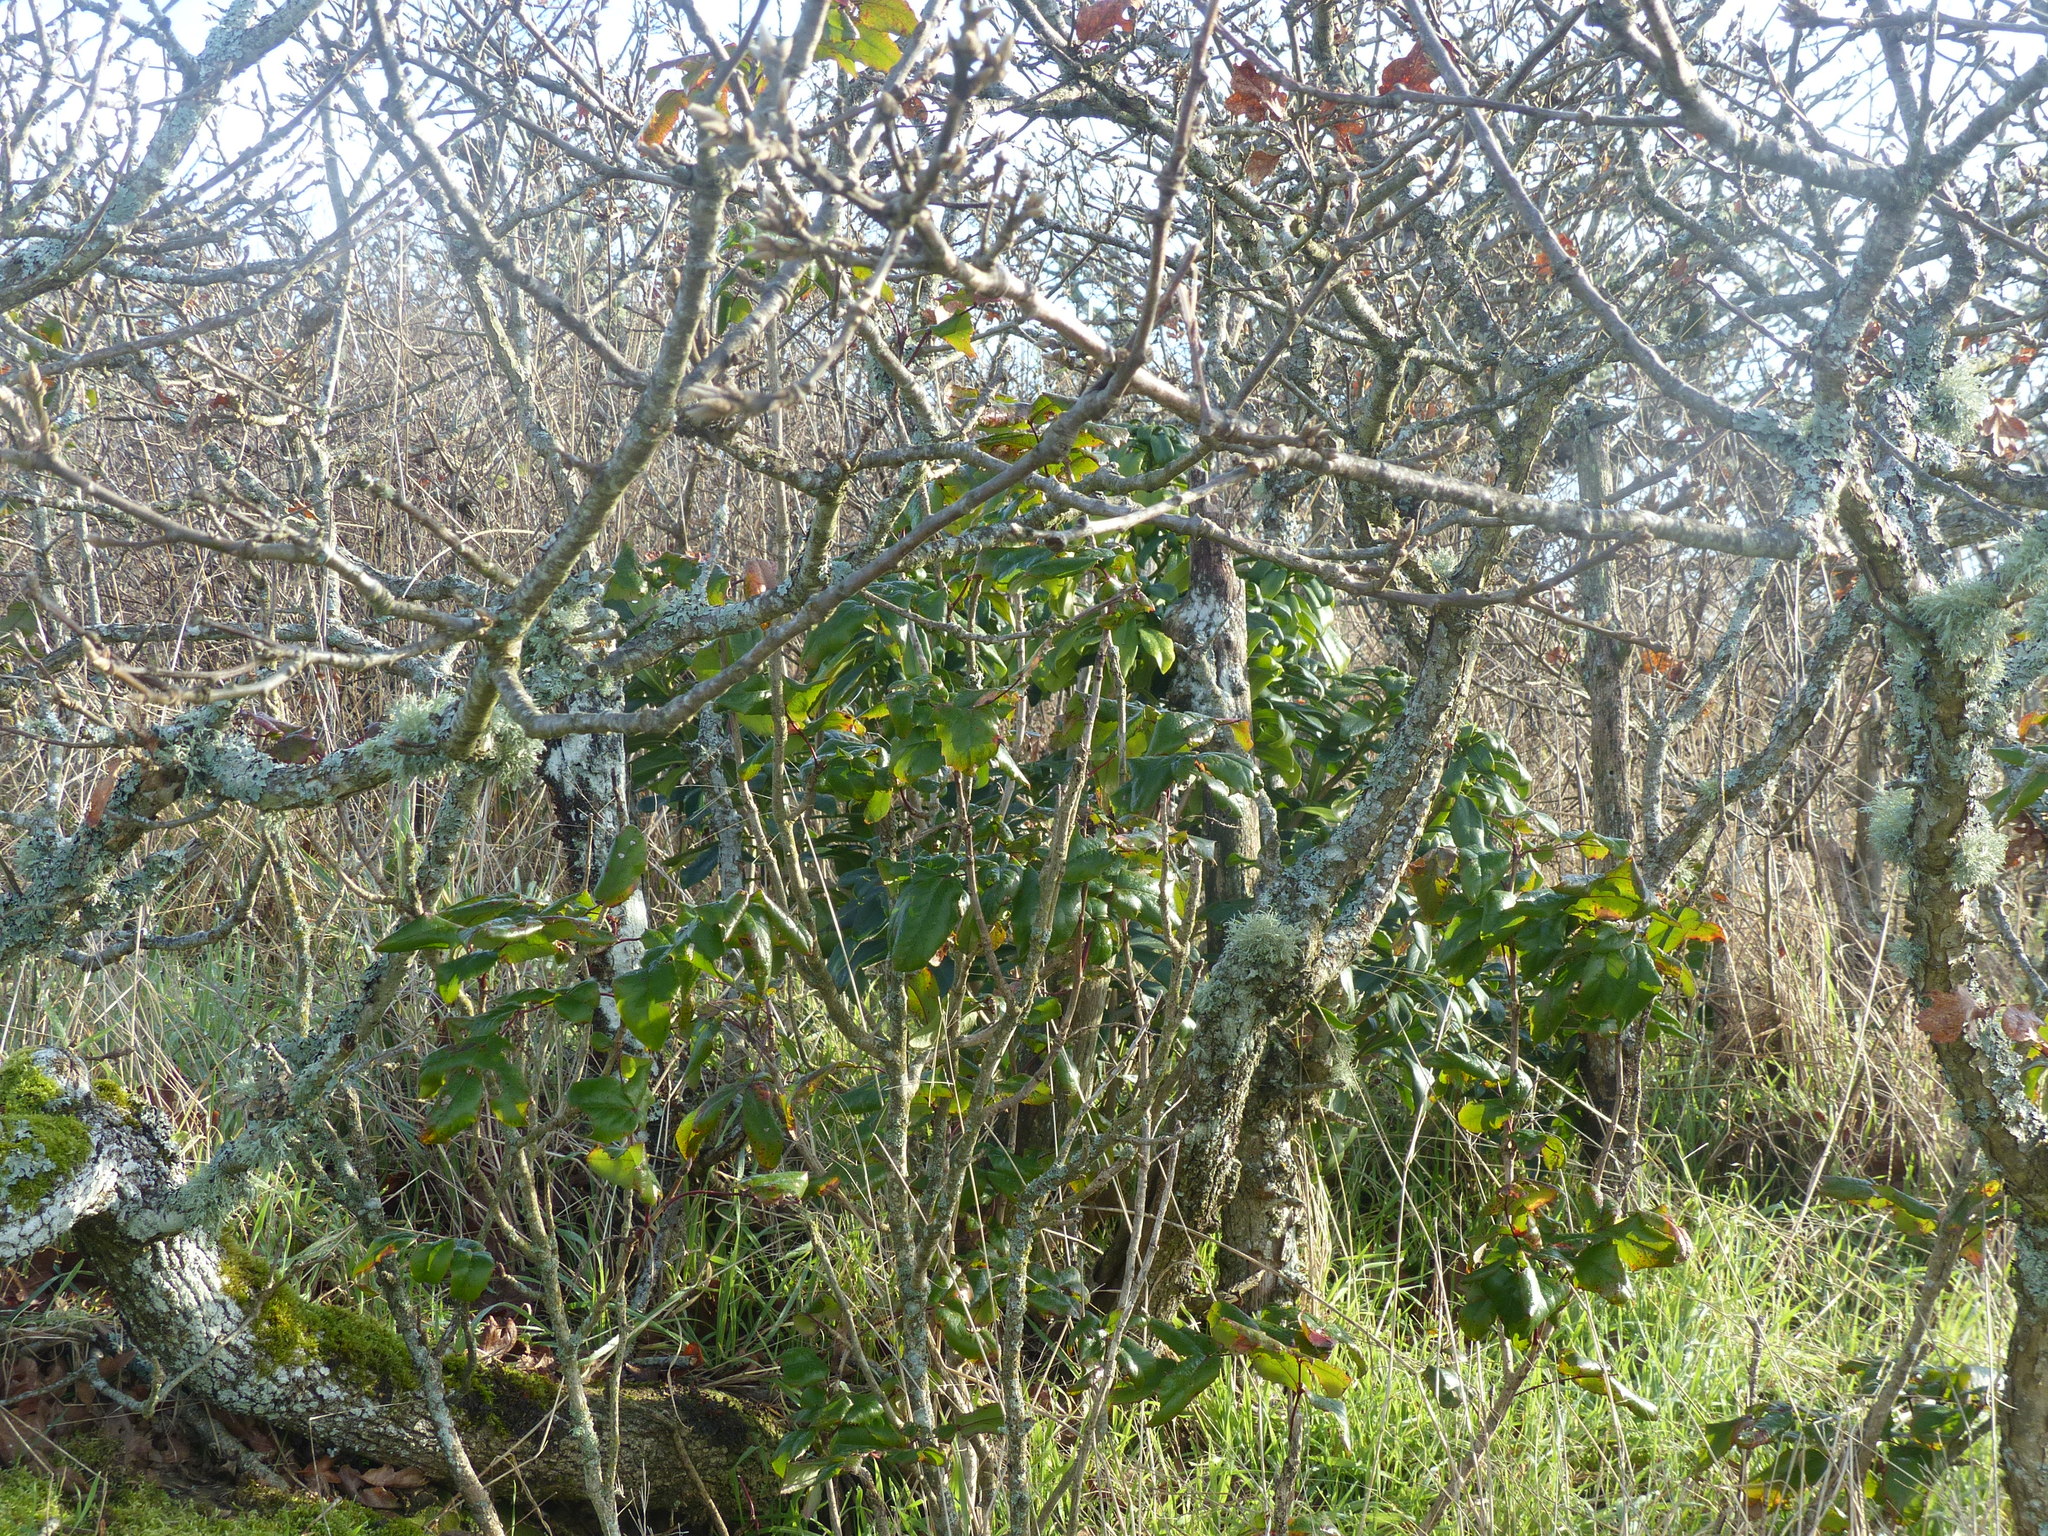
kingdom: Plantae
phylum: Tracheophyta
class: Magnoliopsida
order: Ranunculales
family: Berberidaceae
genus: Mahonia
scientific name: Mahonia aquifolium
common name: Oregon-grape
